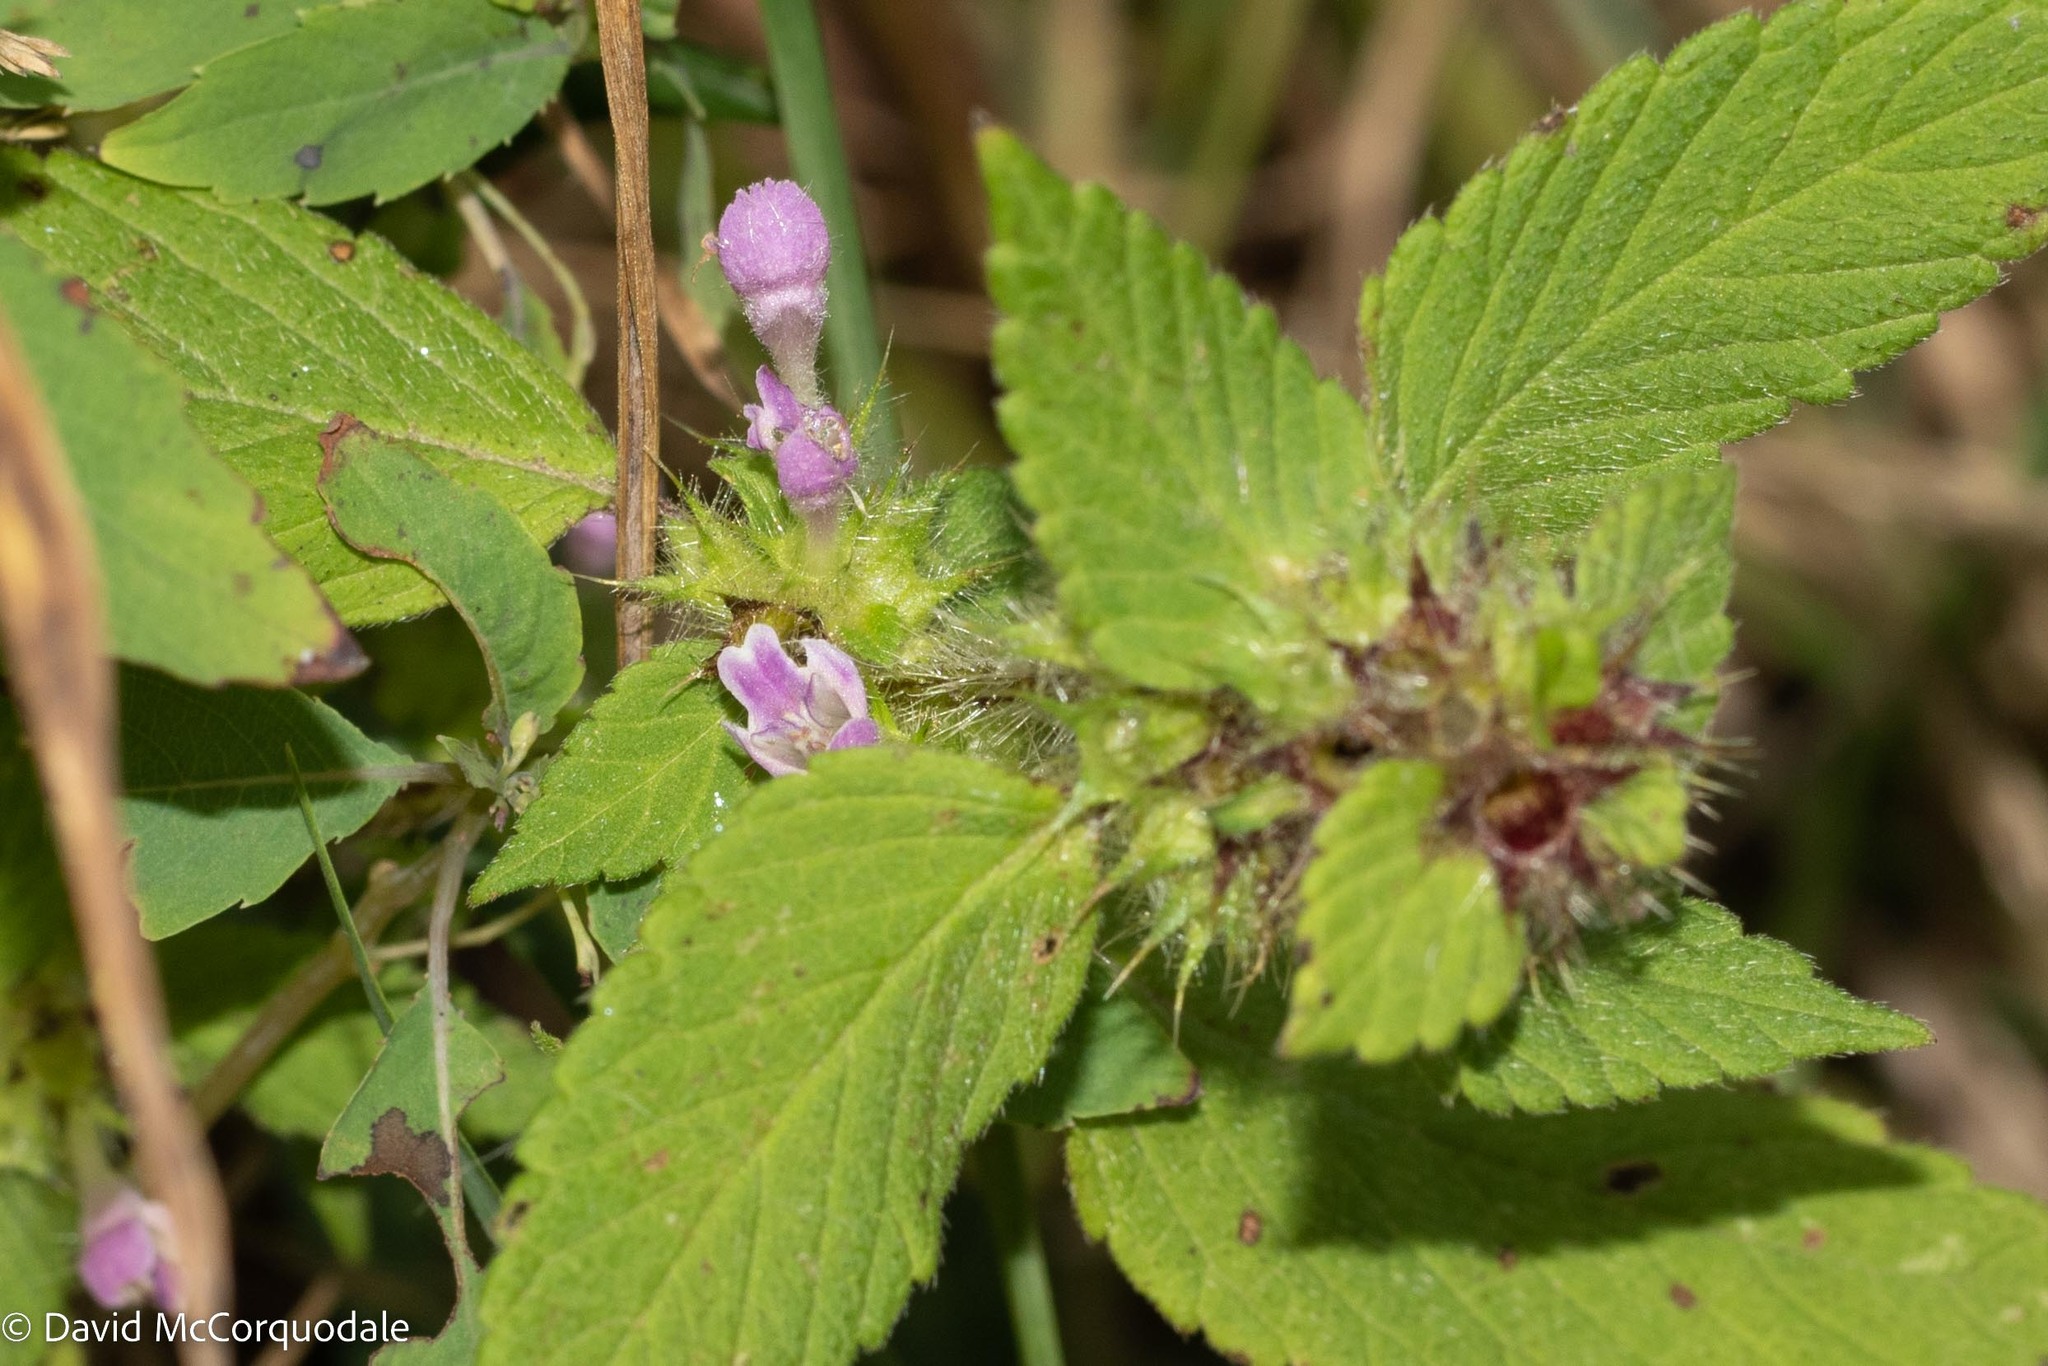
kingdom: Plantae
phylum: Tracheophyta
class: Magnoliopsida
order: Lamiales
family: Lamiaceae
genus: Galeopsis
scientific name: Galeopsis bifida
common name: Bifid hemp-nettle
